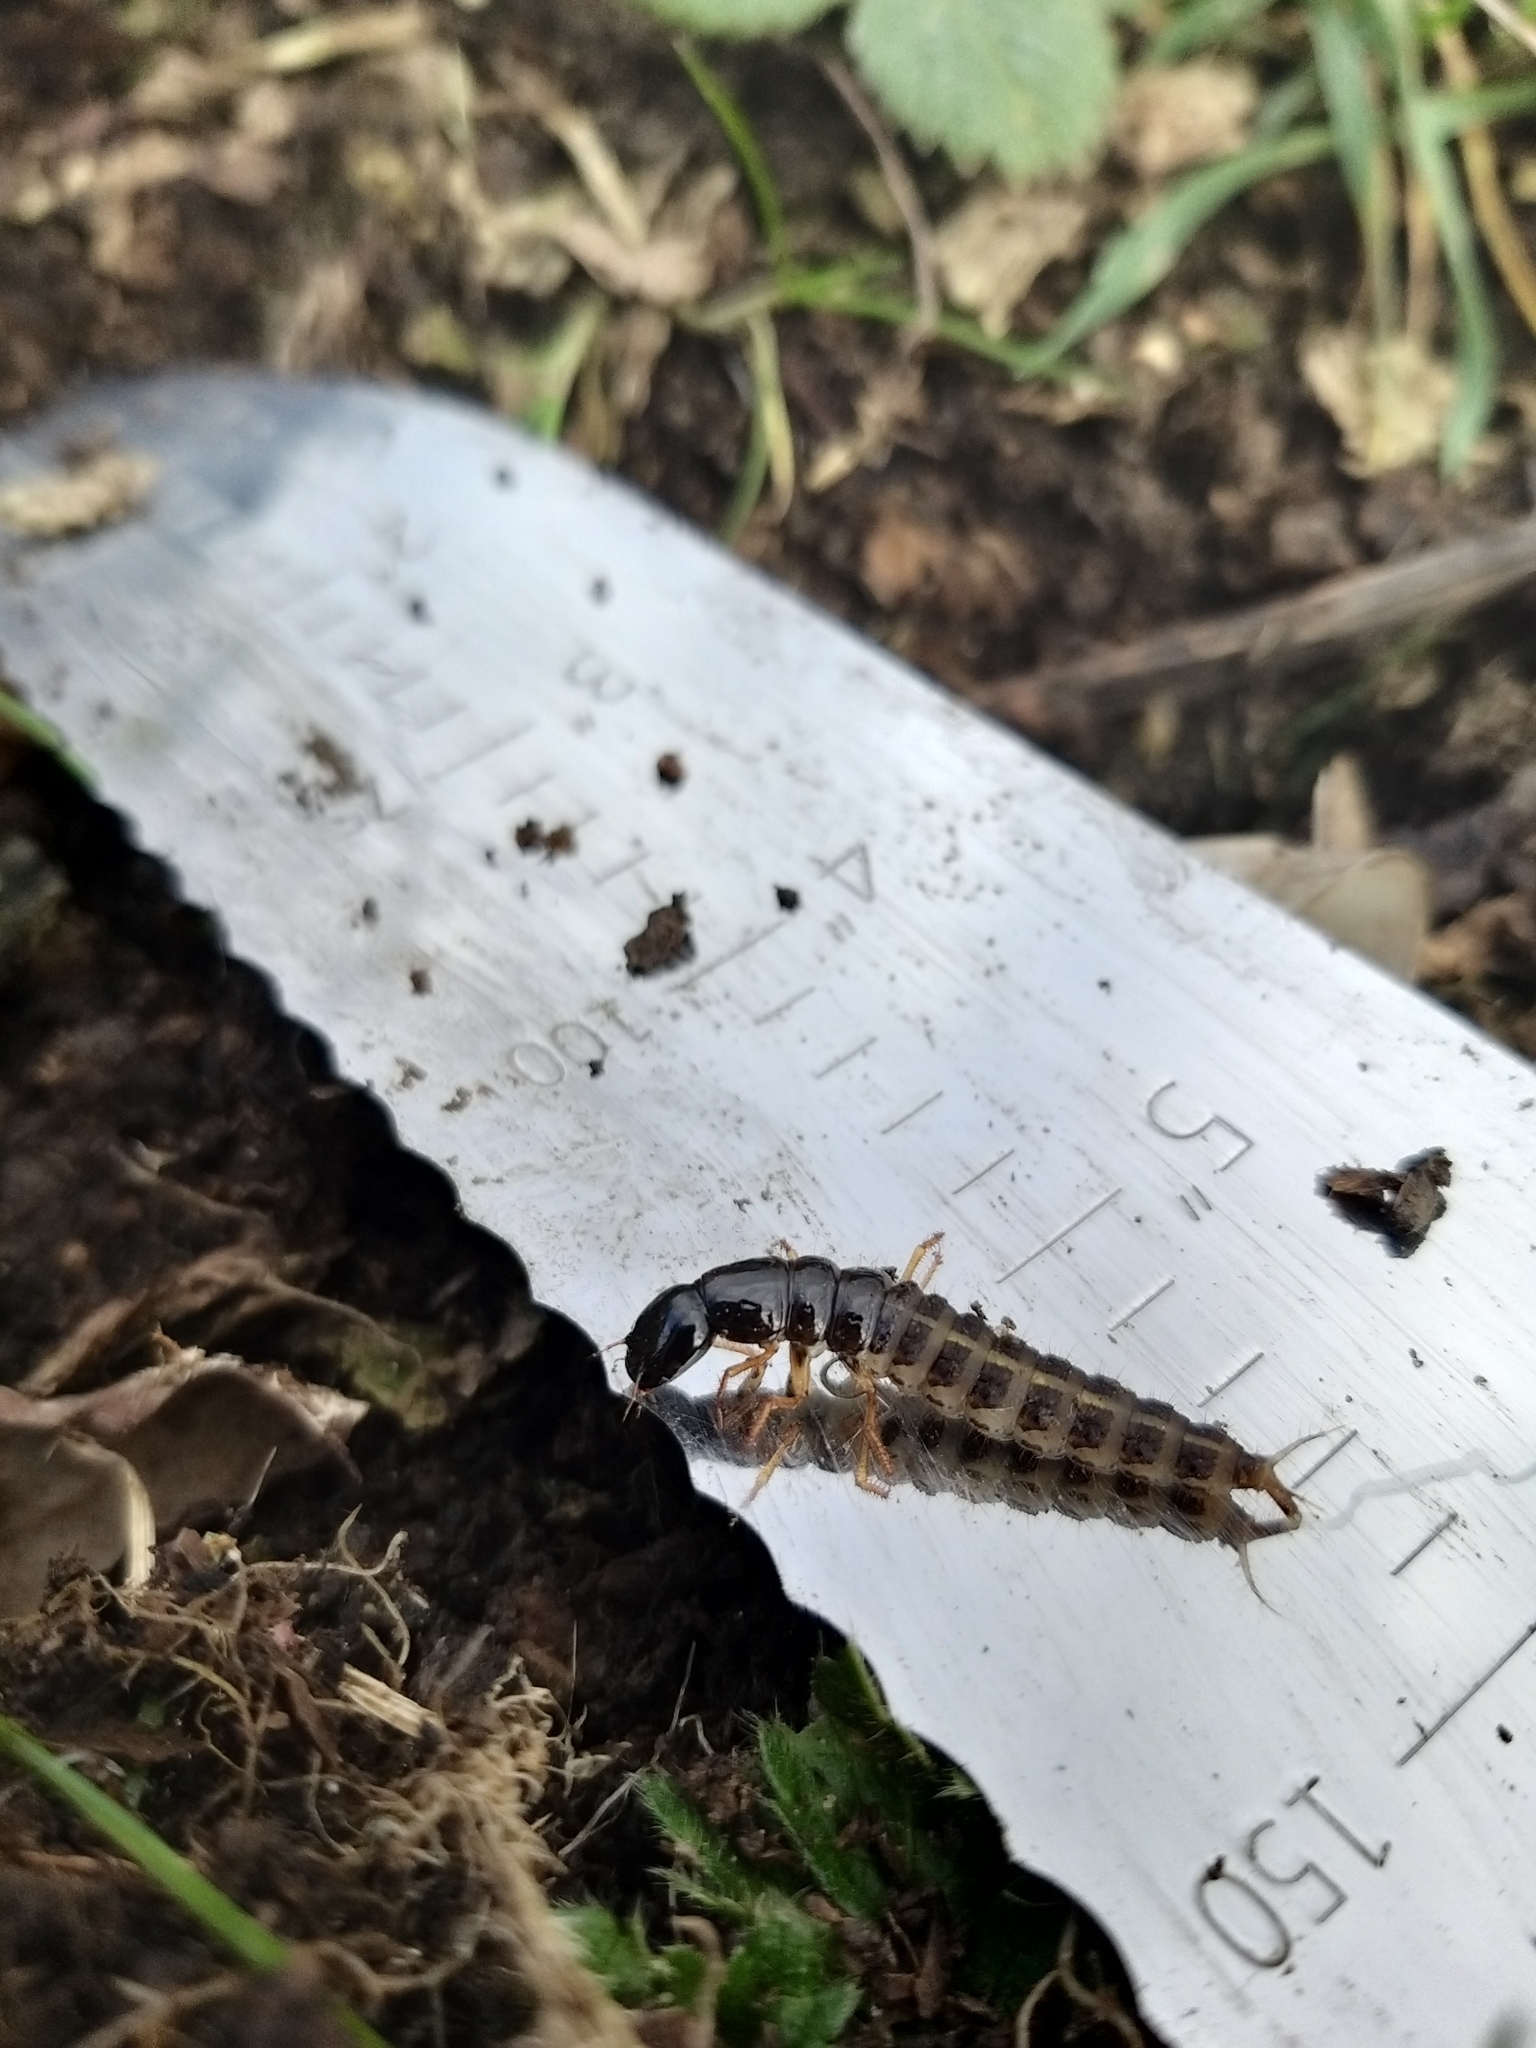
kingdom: Animalia
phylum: Arthropoda
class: Insecta
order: Coleoptera
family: Staphylinidae
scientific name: Staphylinidae
